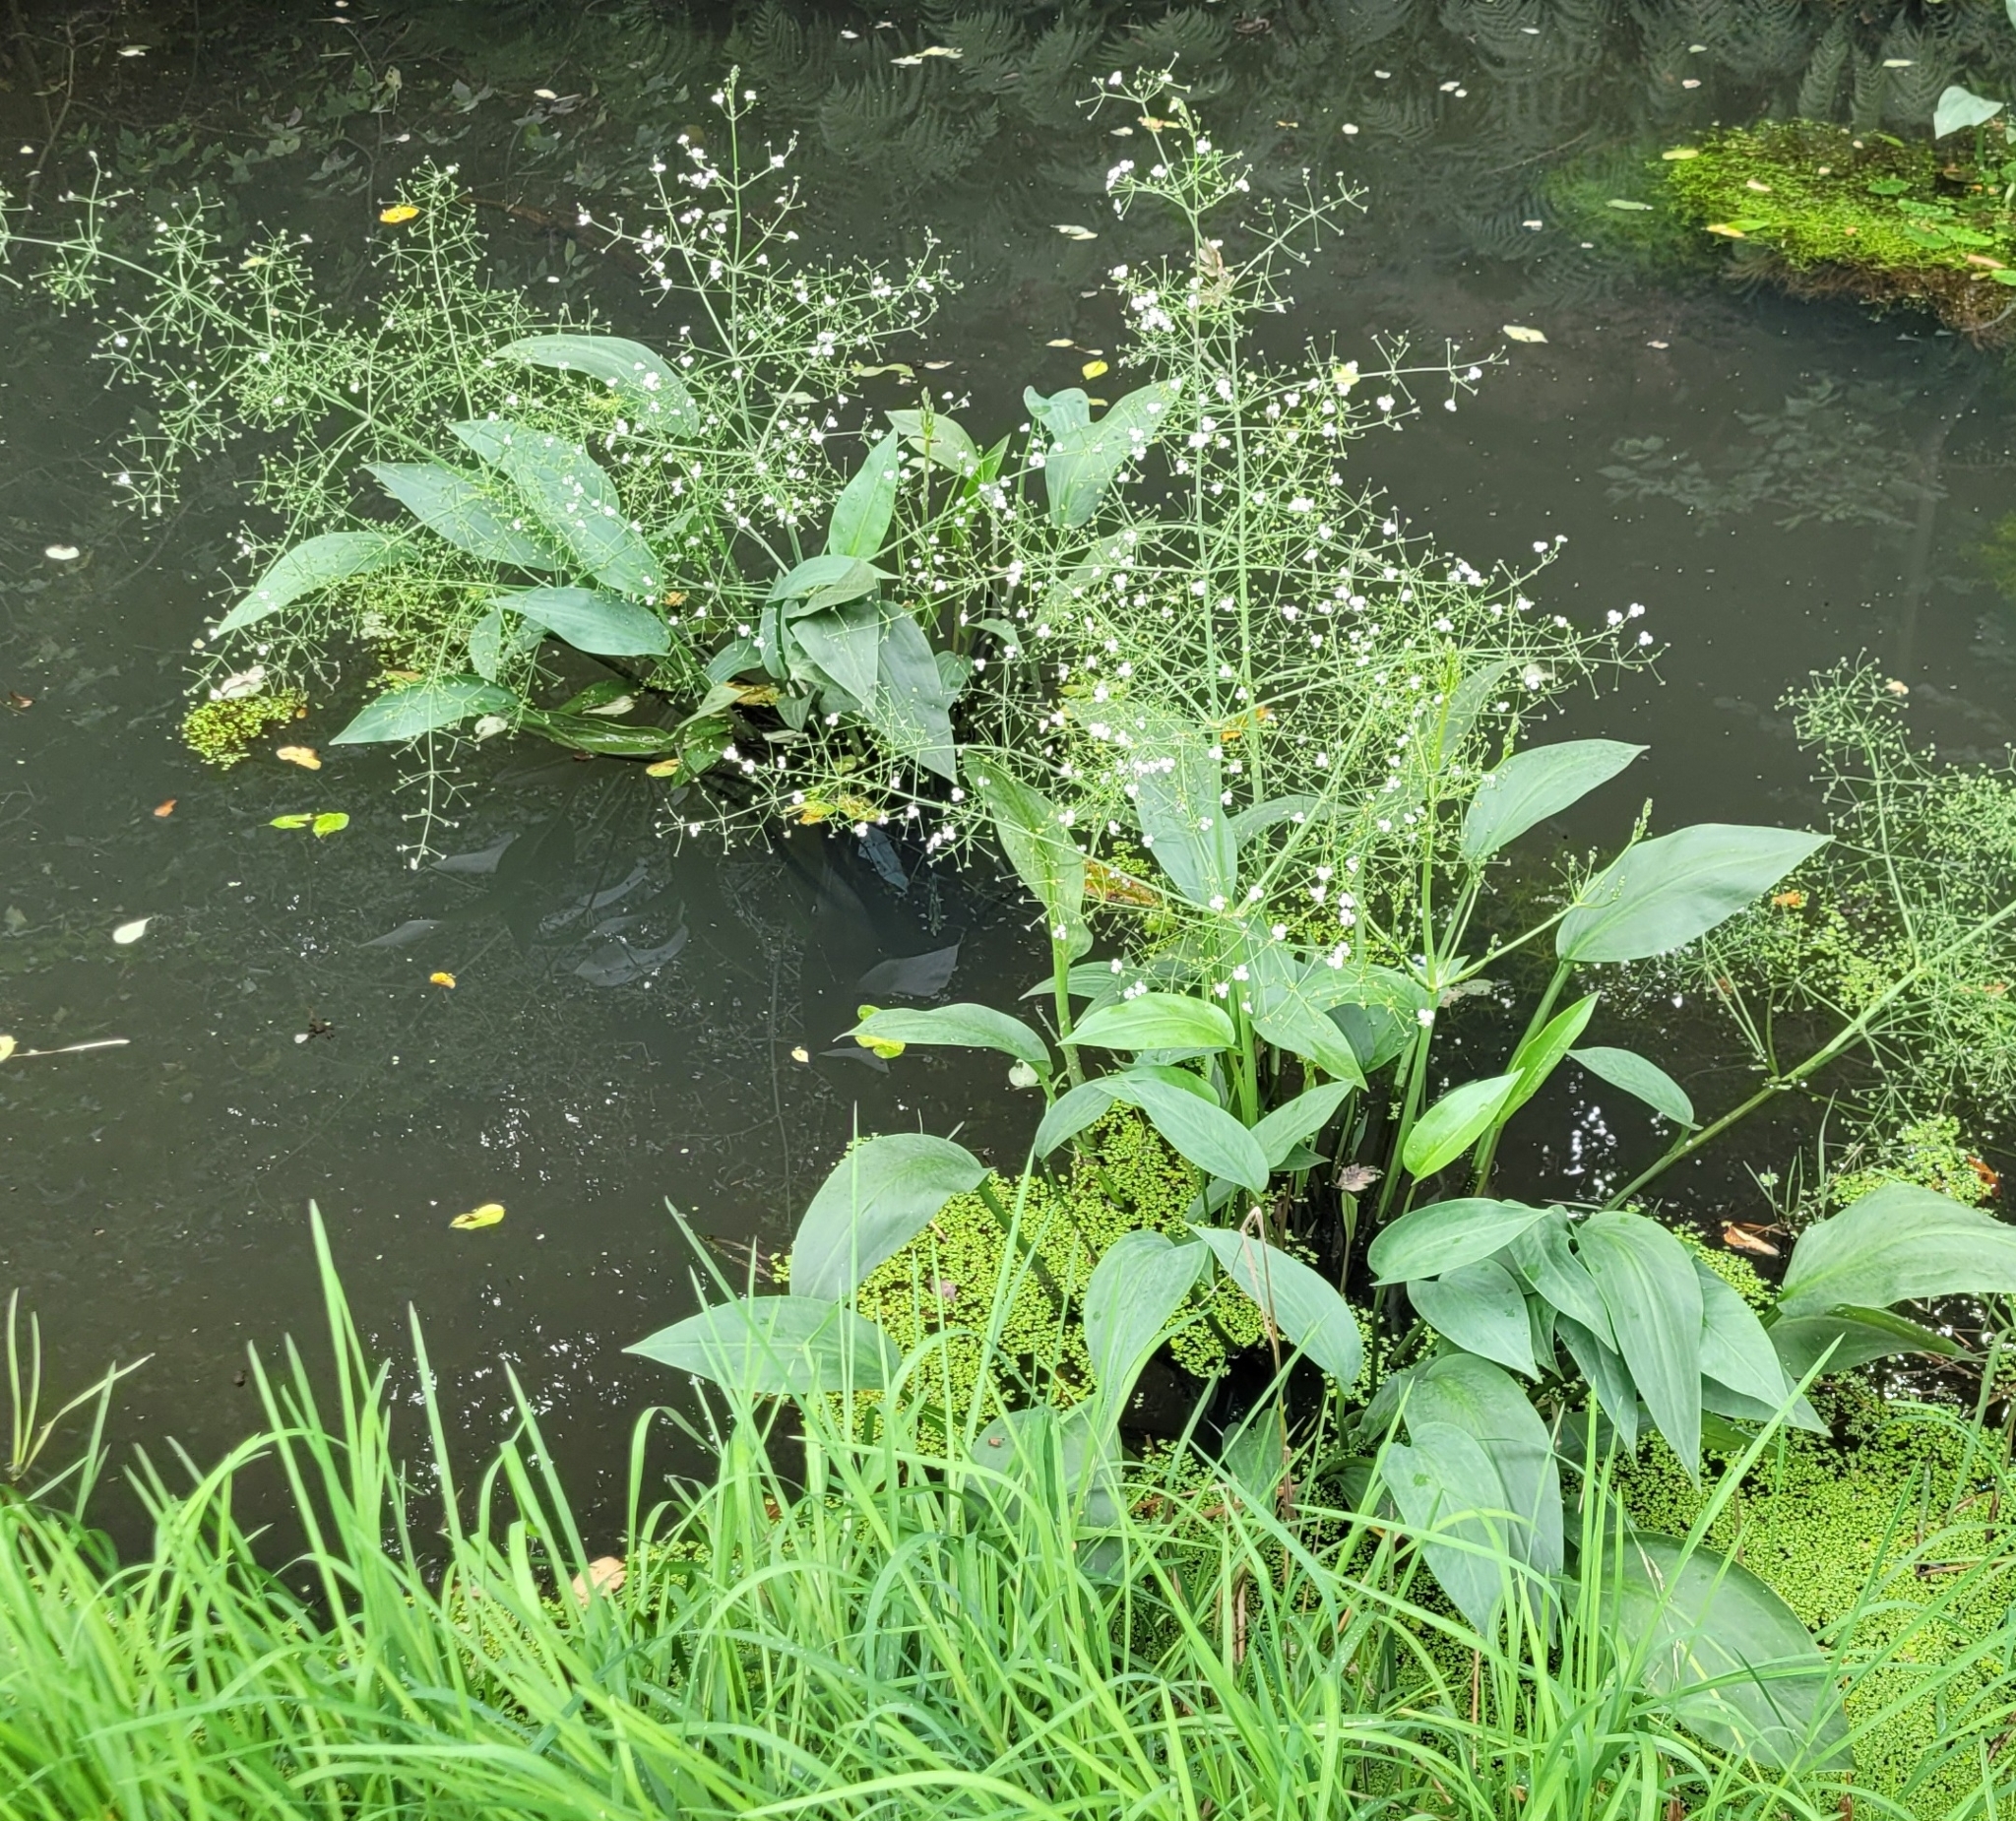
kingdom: Plantae
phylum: Tracheophyta
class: Liliopsida
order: Alismatales
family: Alismataceae
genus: Alisma
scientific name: Alisma plantago-aquatica
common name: Water-plantain
